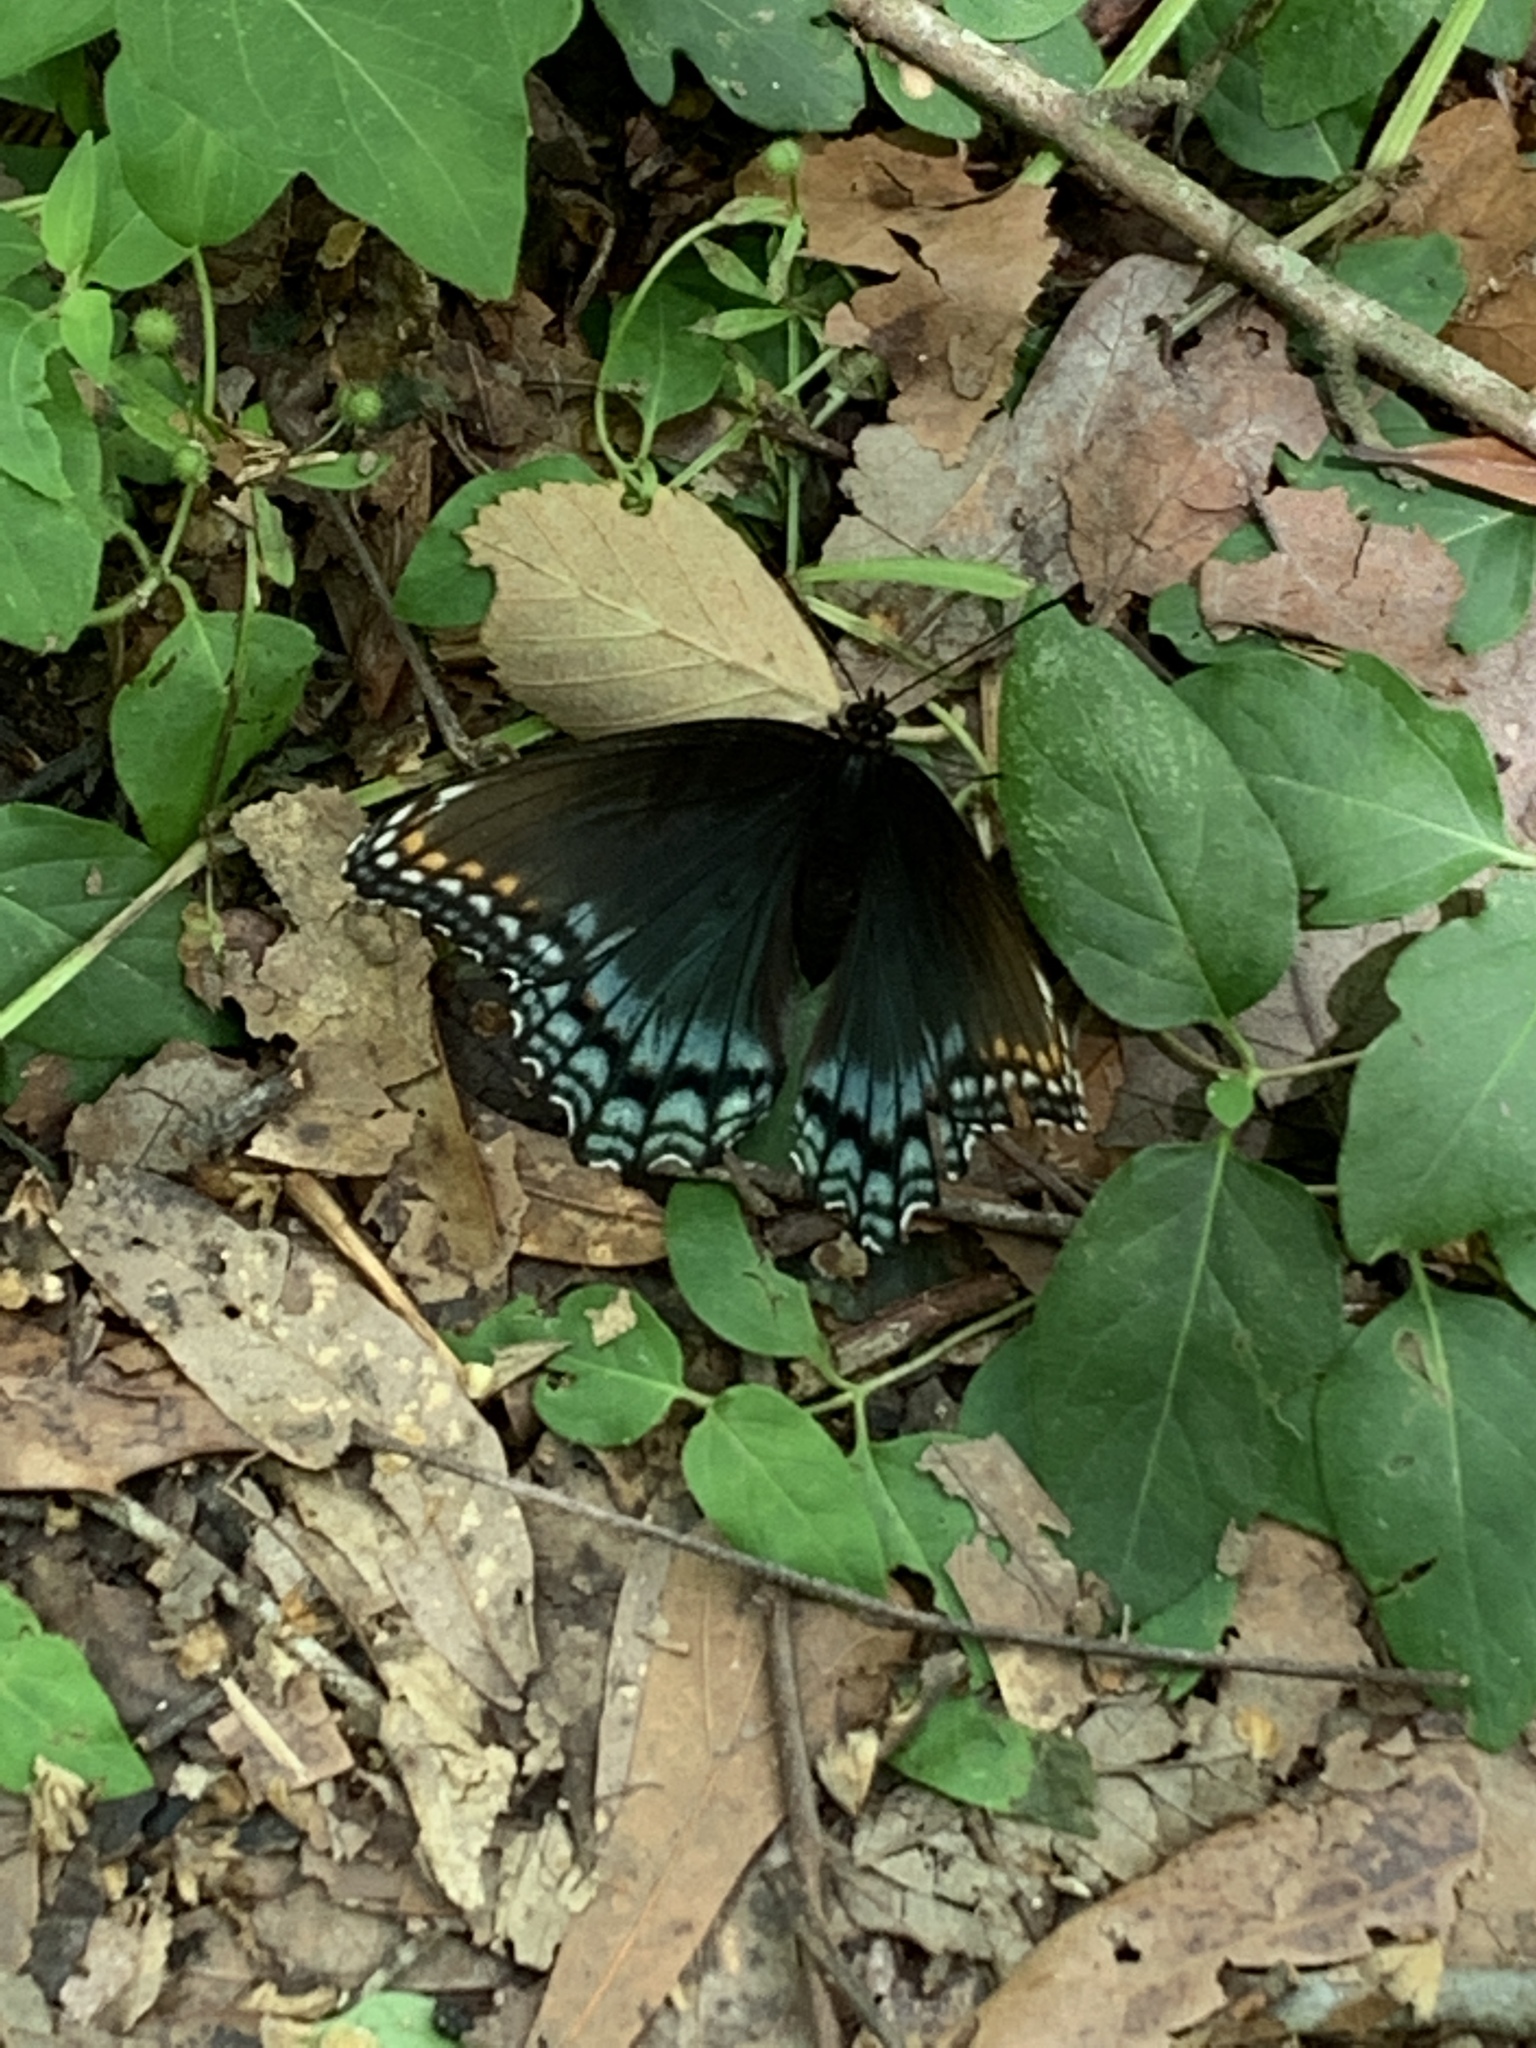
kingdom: Animalia
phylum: Arthropoda
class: Insecta
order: Lepidoptera
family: Nymphalidae
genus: Limenitis
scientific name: Limenitis astyanax
